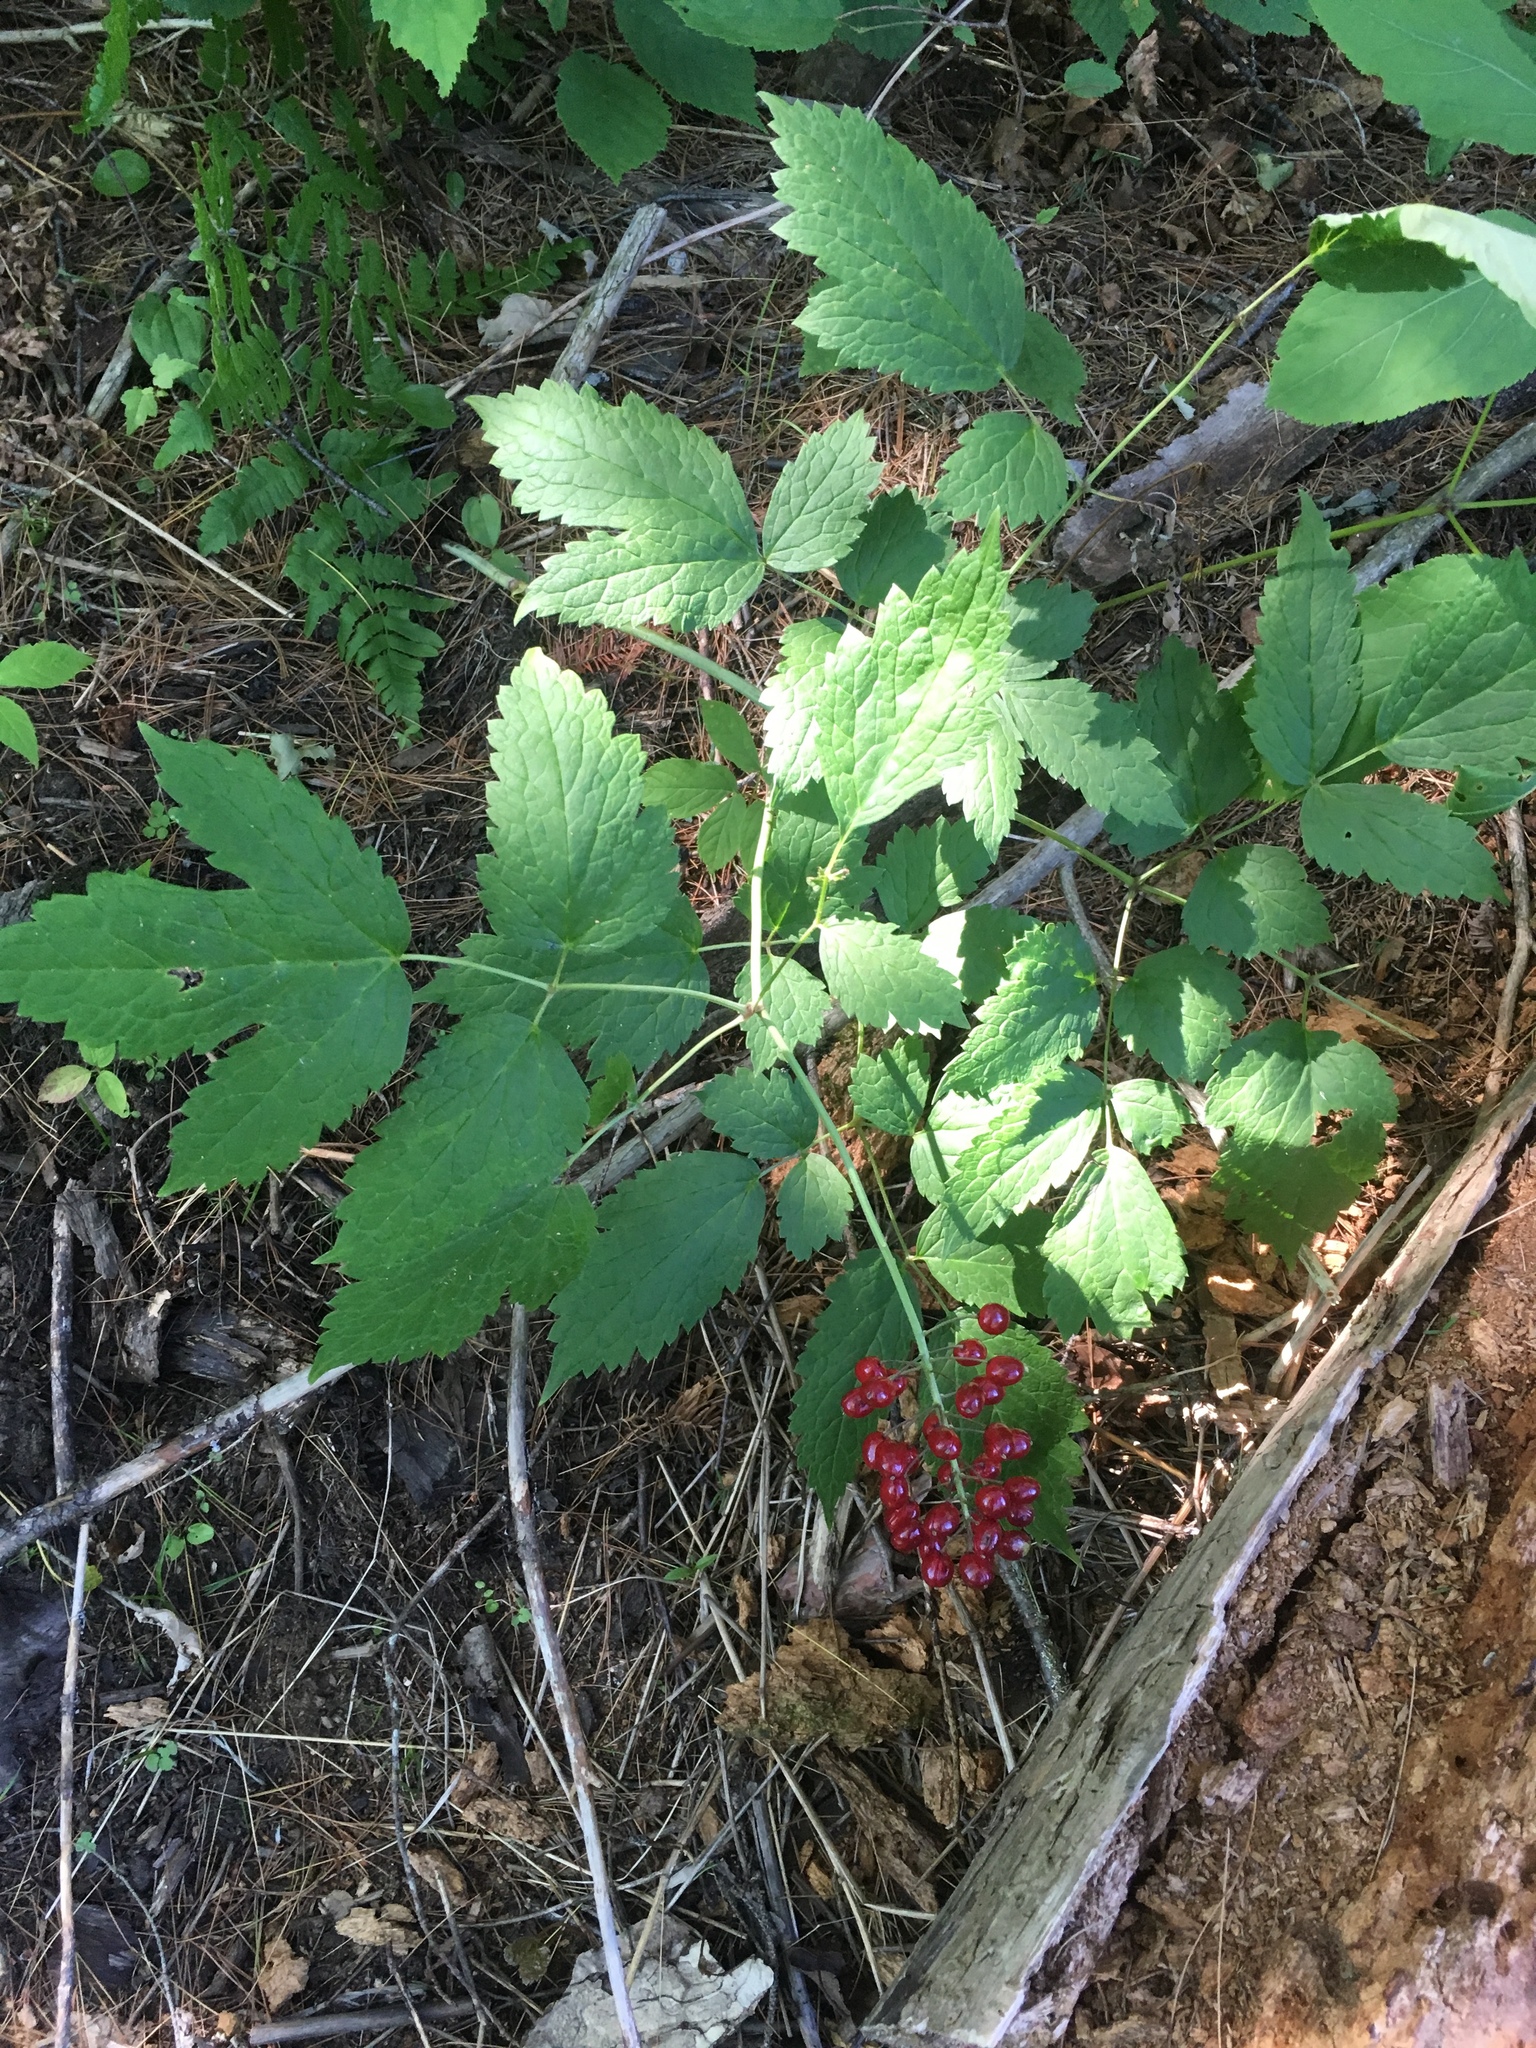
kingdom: Plantae
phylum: Tracheophyta
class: Magnoliopsida
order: Ranunculales
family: Ranunculaceae
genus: Actaea
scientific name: Actaea rubra
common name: Red baneberry
